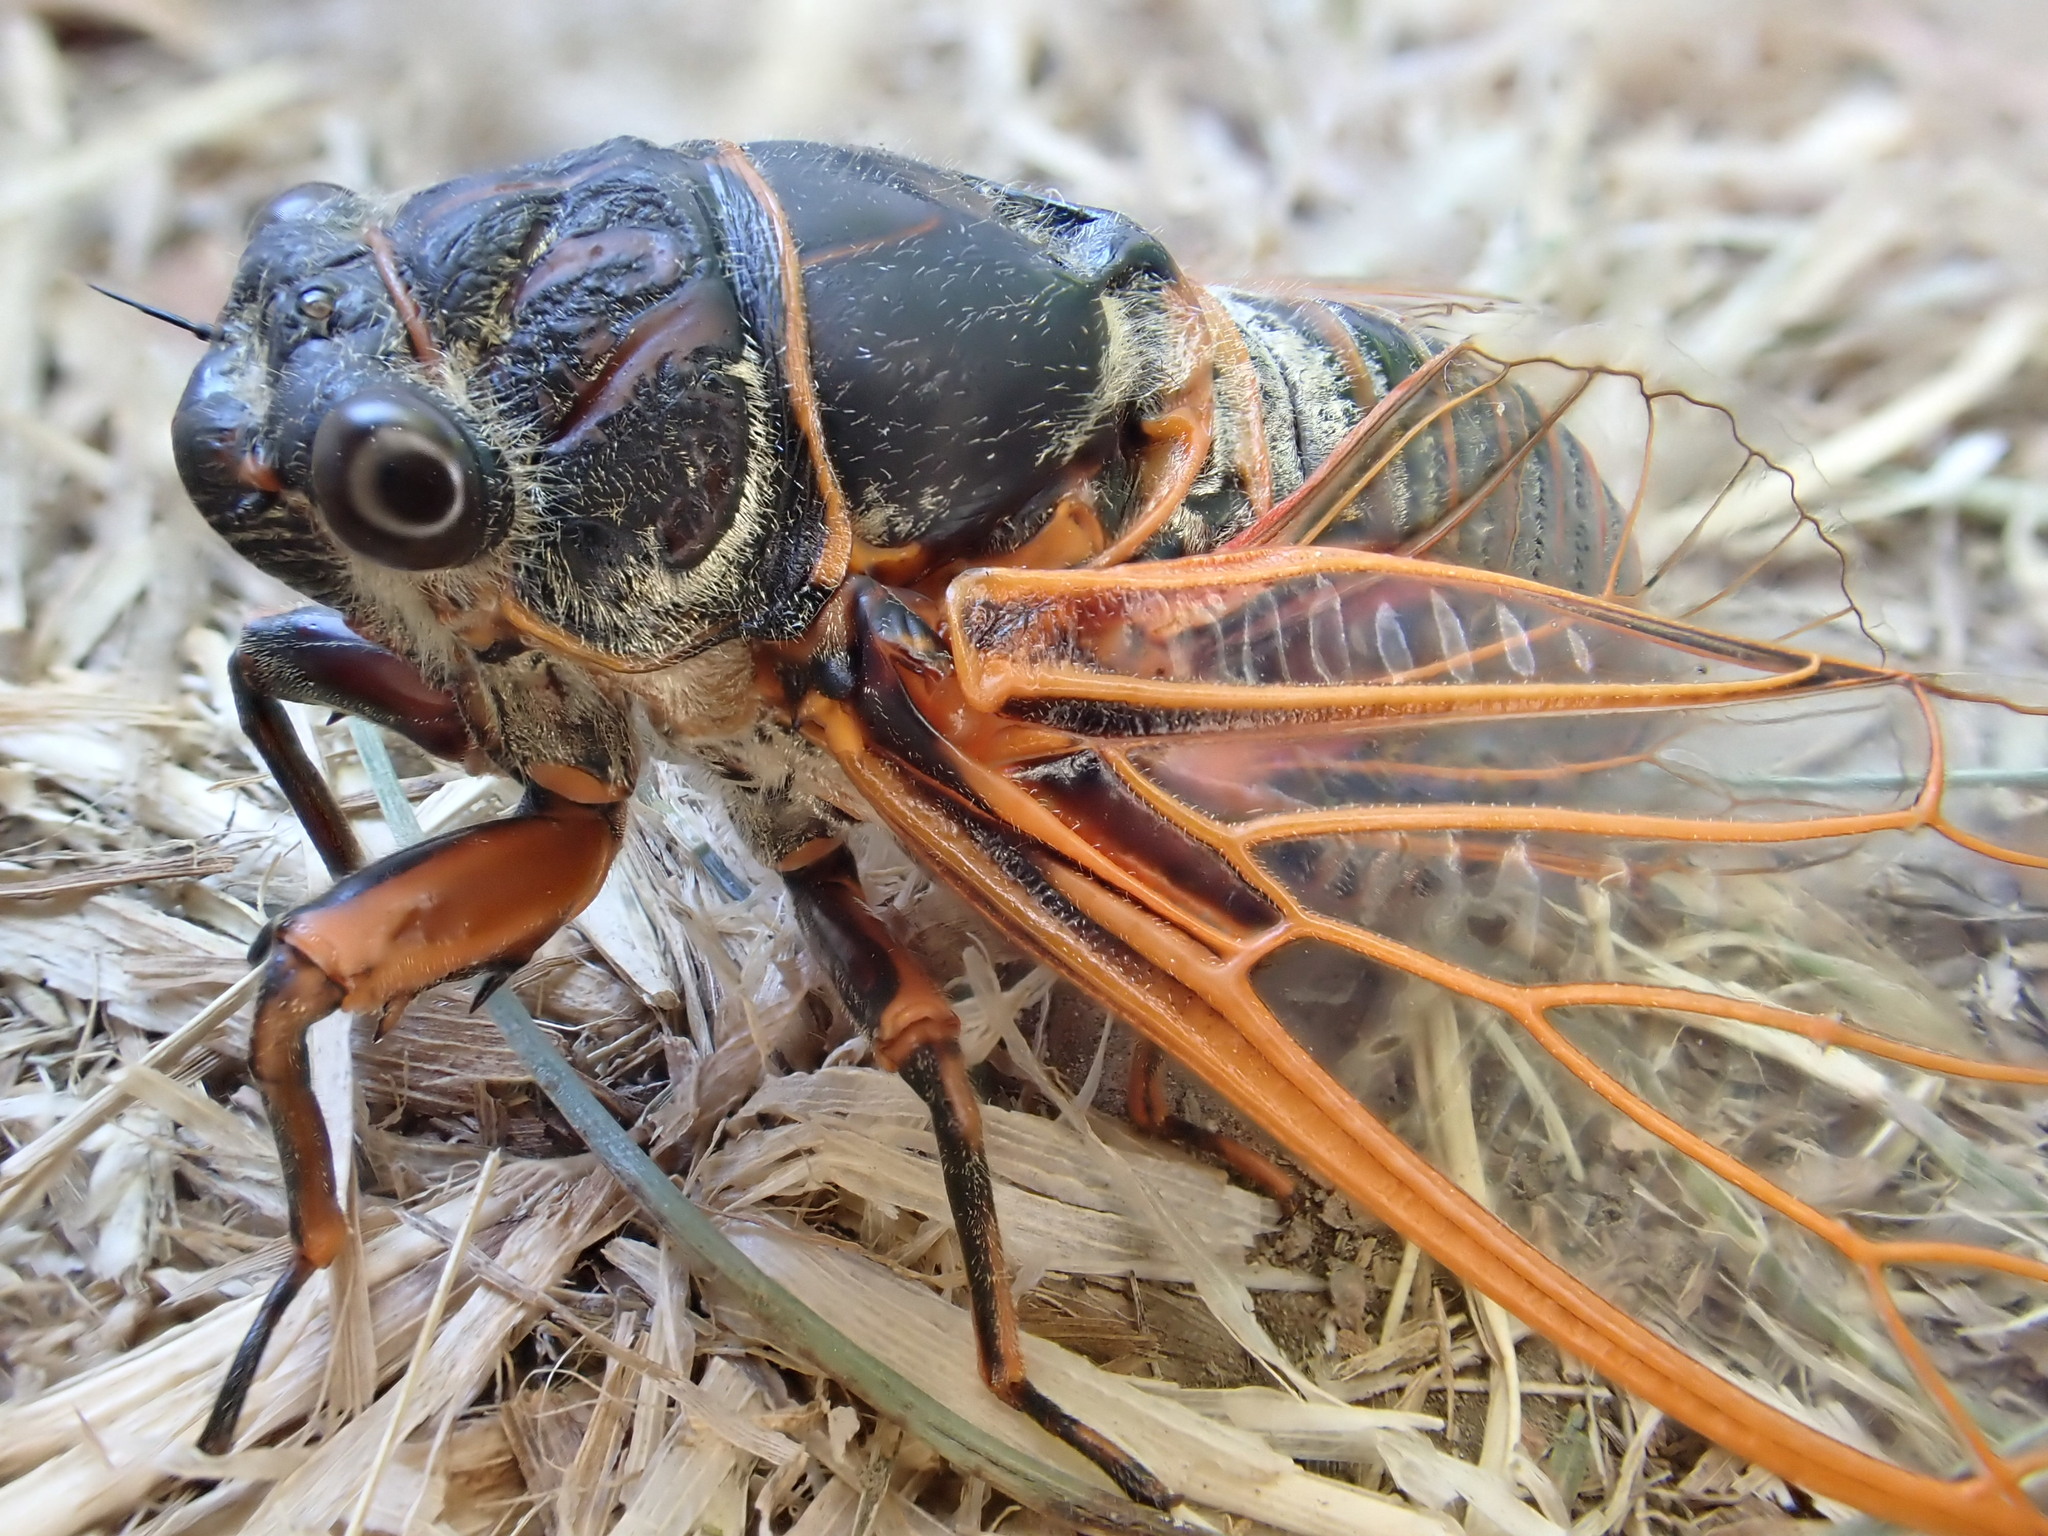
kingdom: Animalia
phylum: Arthropoda
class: Insecta
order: Hemiptera
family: Cicadidae
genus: Tibicina
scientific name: Tibicina haematodes
